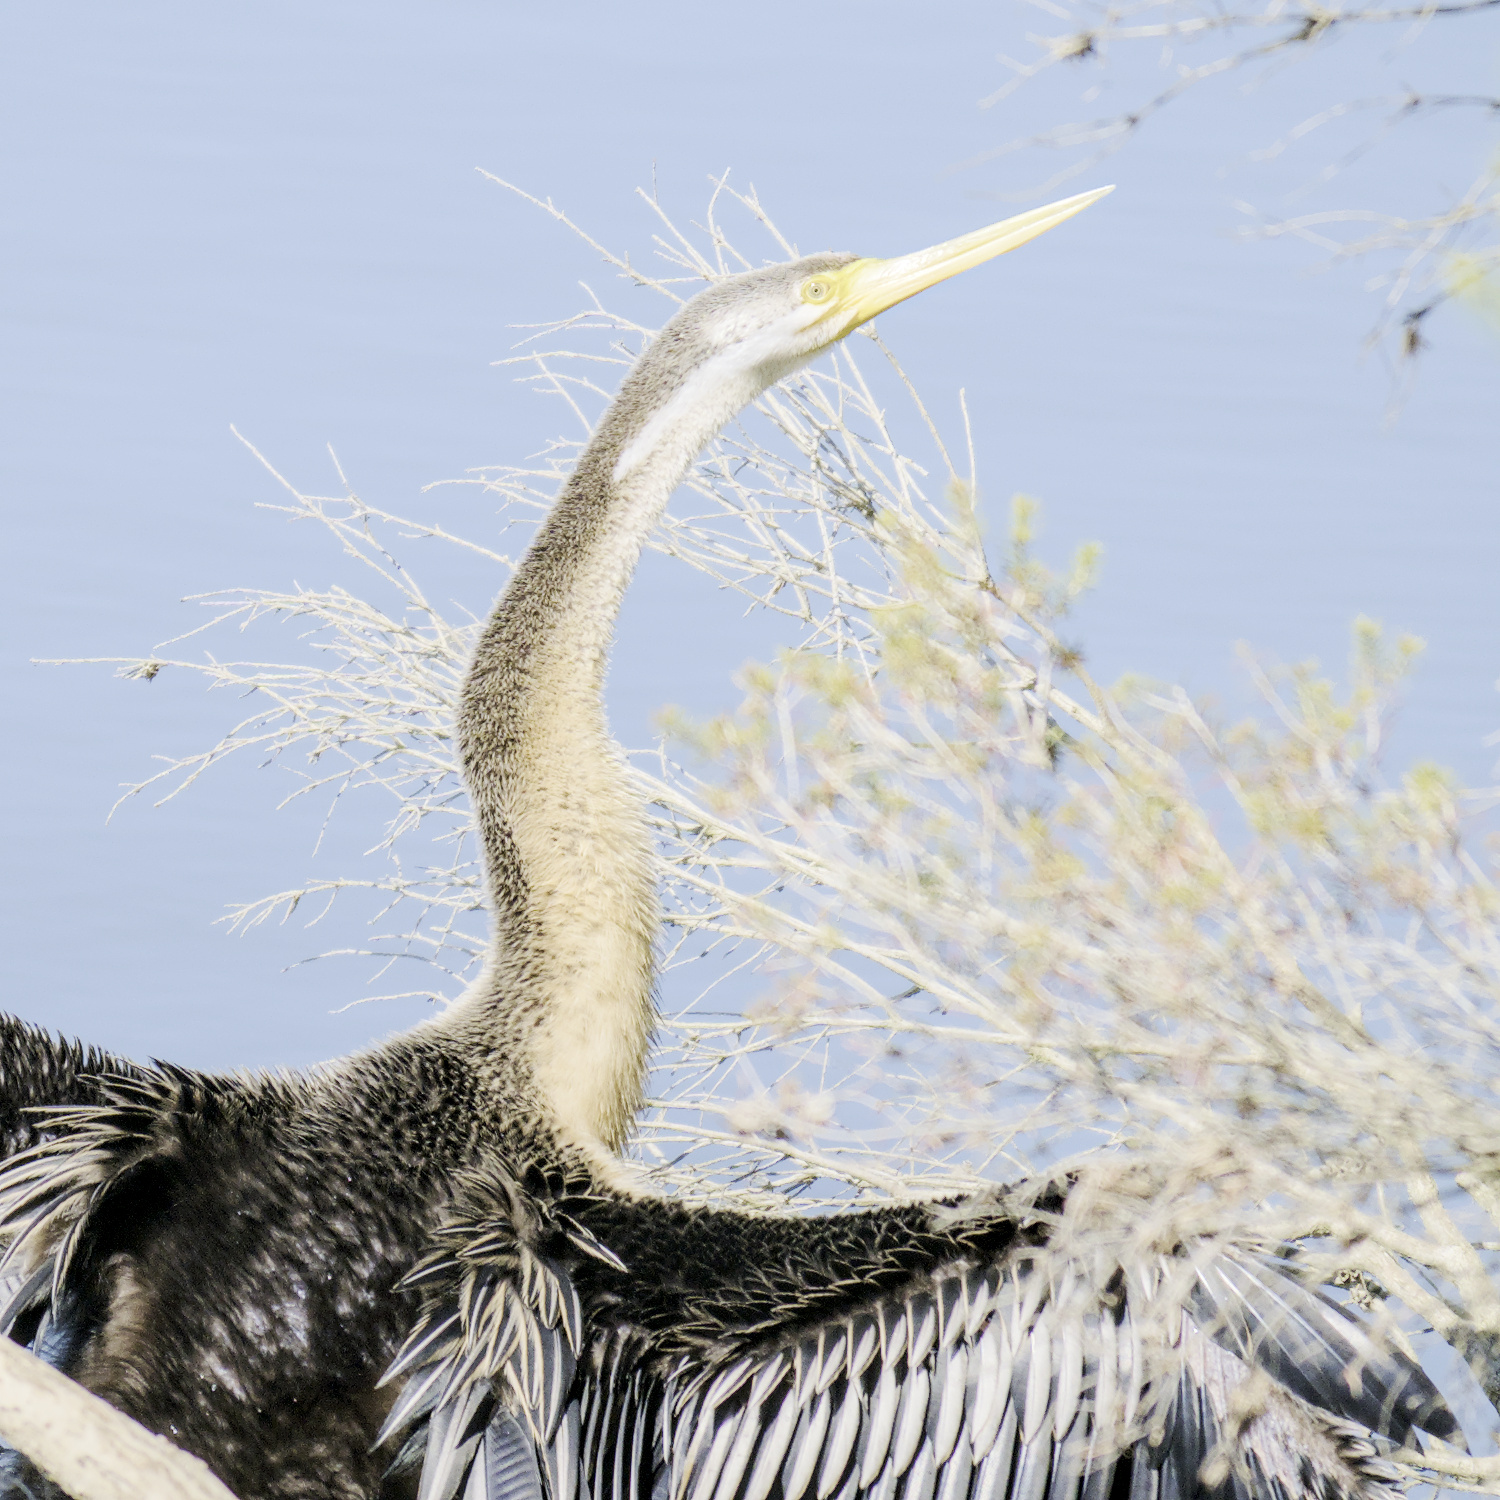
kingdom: Animalia
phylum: Chordata
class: Aves
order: Suliformes
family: Anhingidae
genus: Anhinga
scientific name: Anhinga novaehollandiae
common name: Australasian darter
